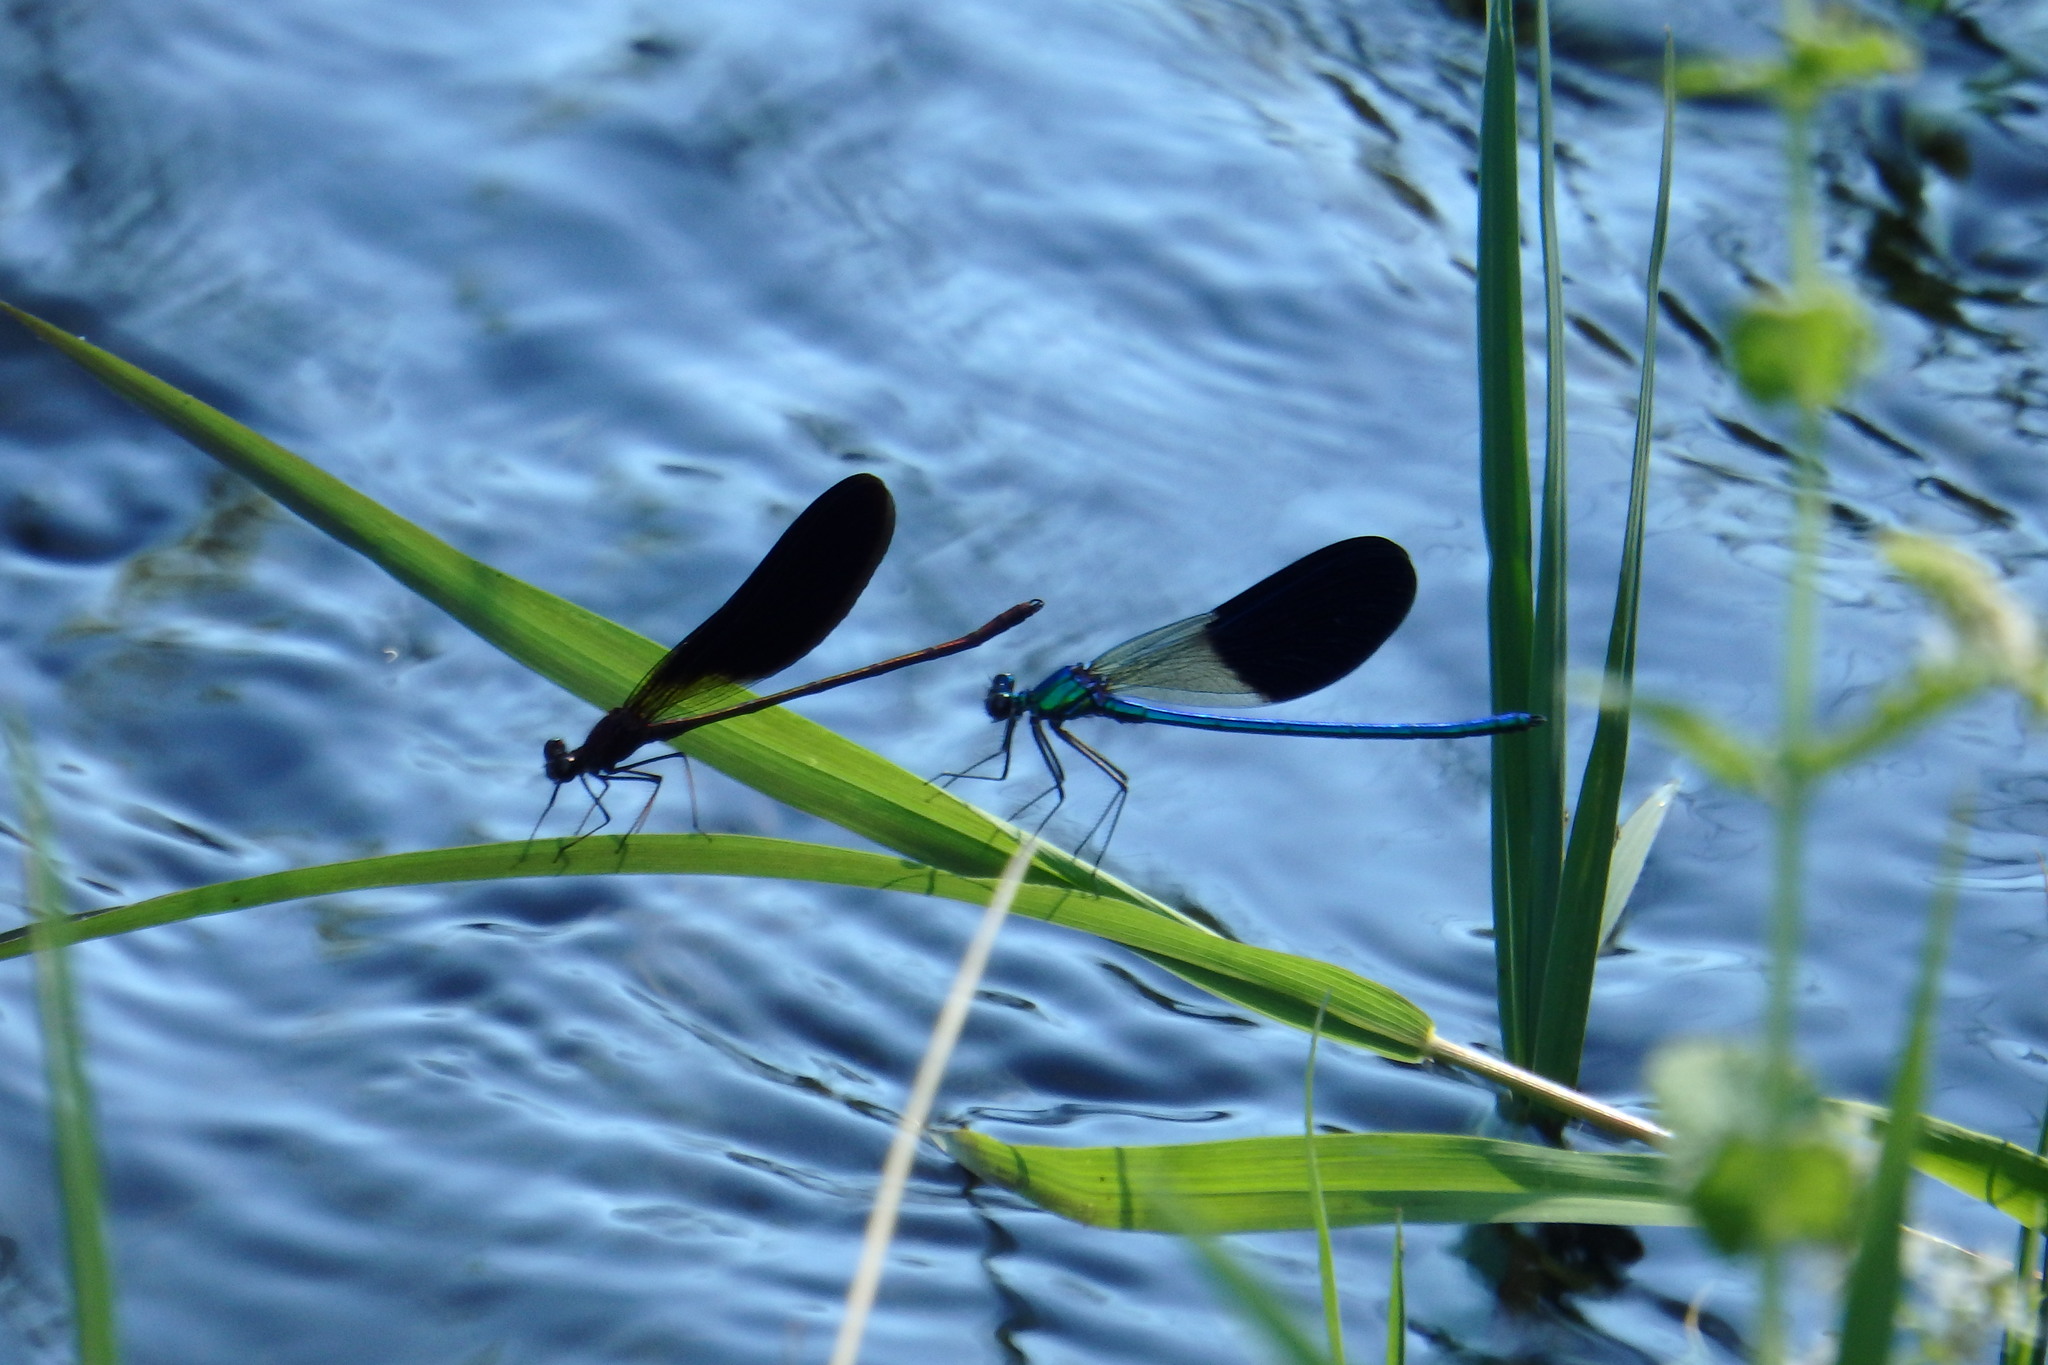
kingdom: Animalia
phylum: Arthropoda
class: Insecta
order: Odonata
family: Calopterygidae
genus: Calopteryx
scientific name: Calopteryx xanthostoma
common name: Western demoiselle
